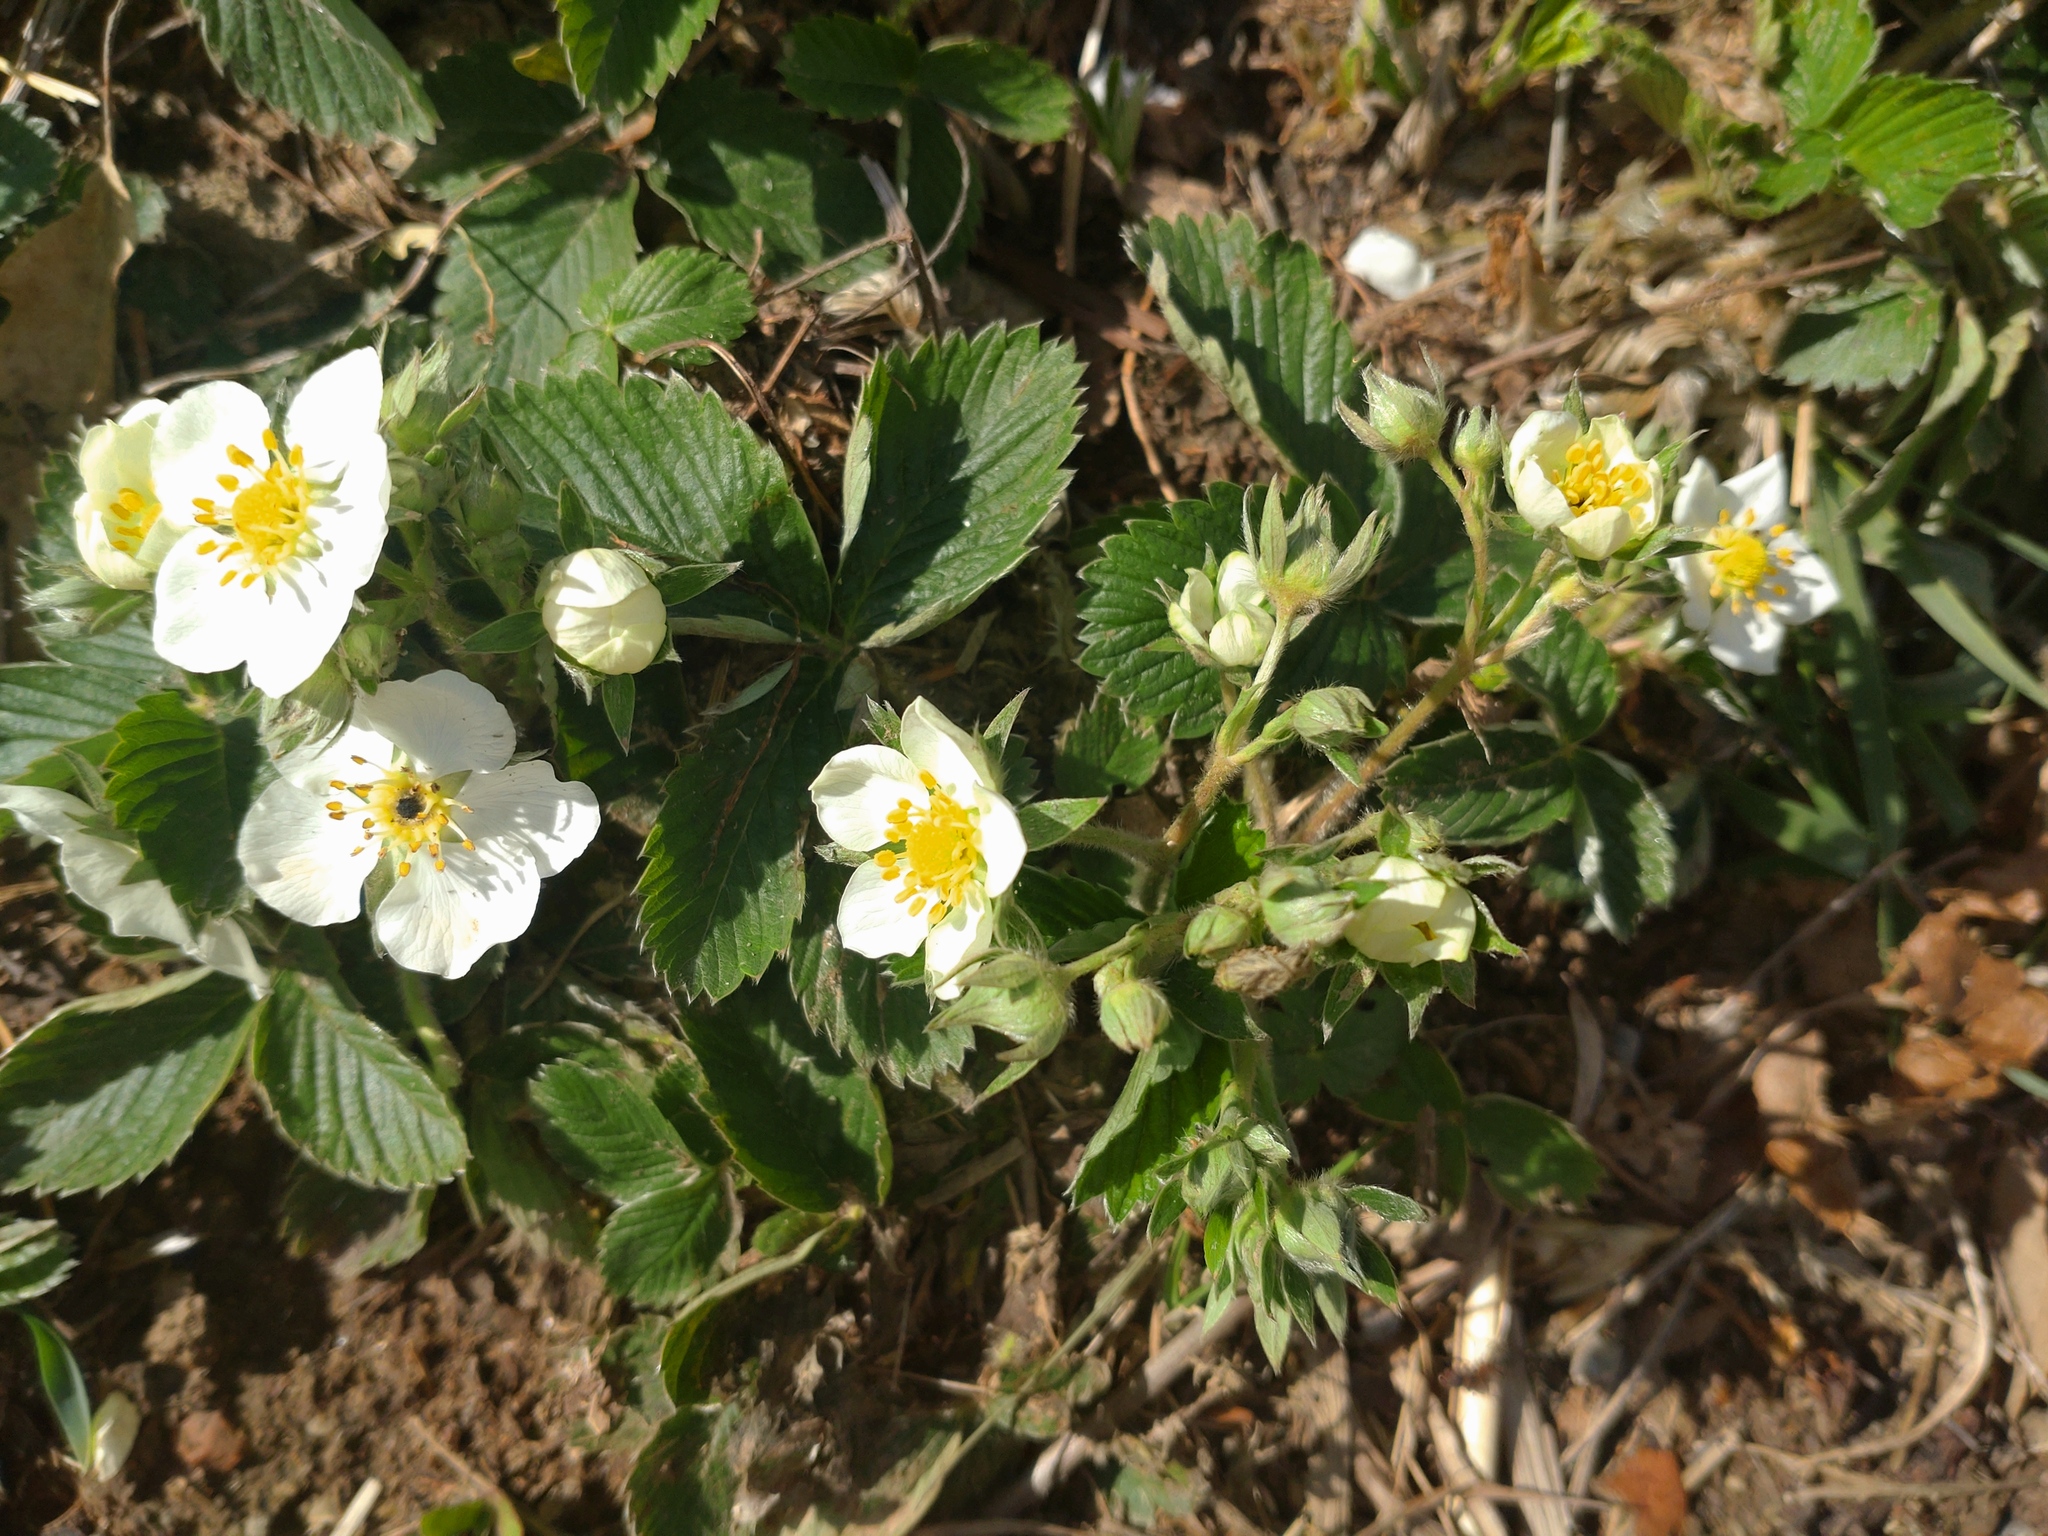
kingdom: Plantae
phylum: Tracheophyta
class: Magnoliopsida
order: Rosales
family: Rosaceae
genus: Fragaria
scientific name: Fragaria viridis
